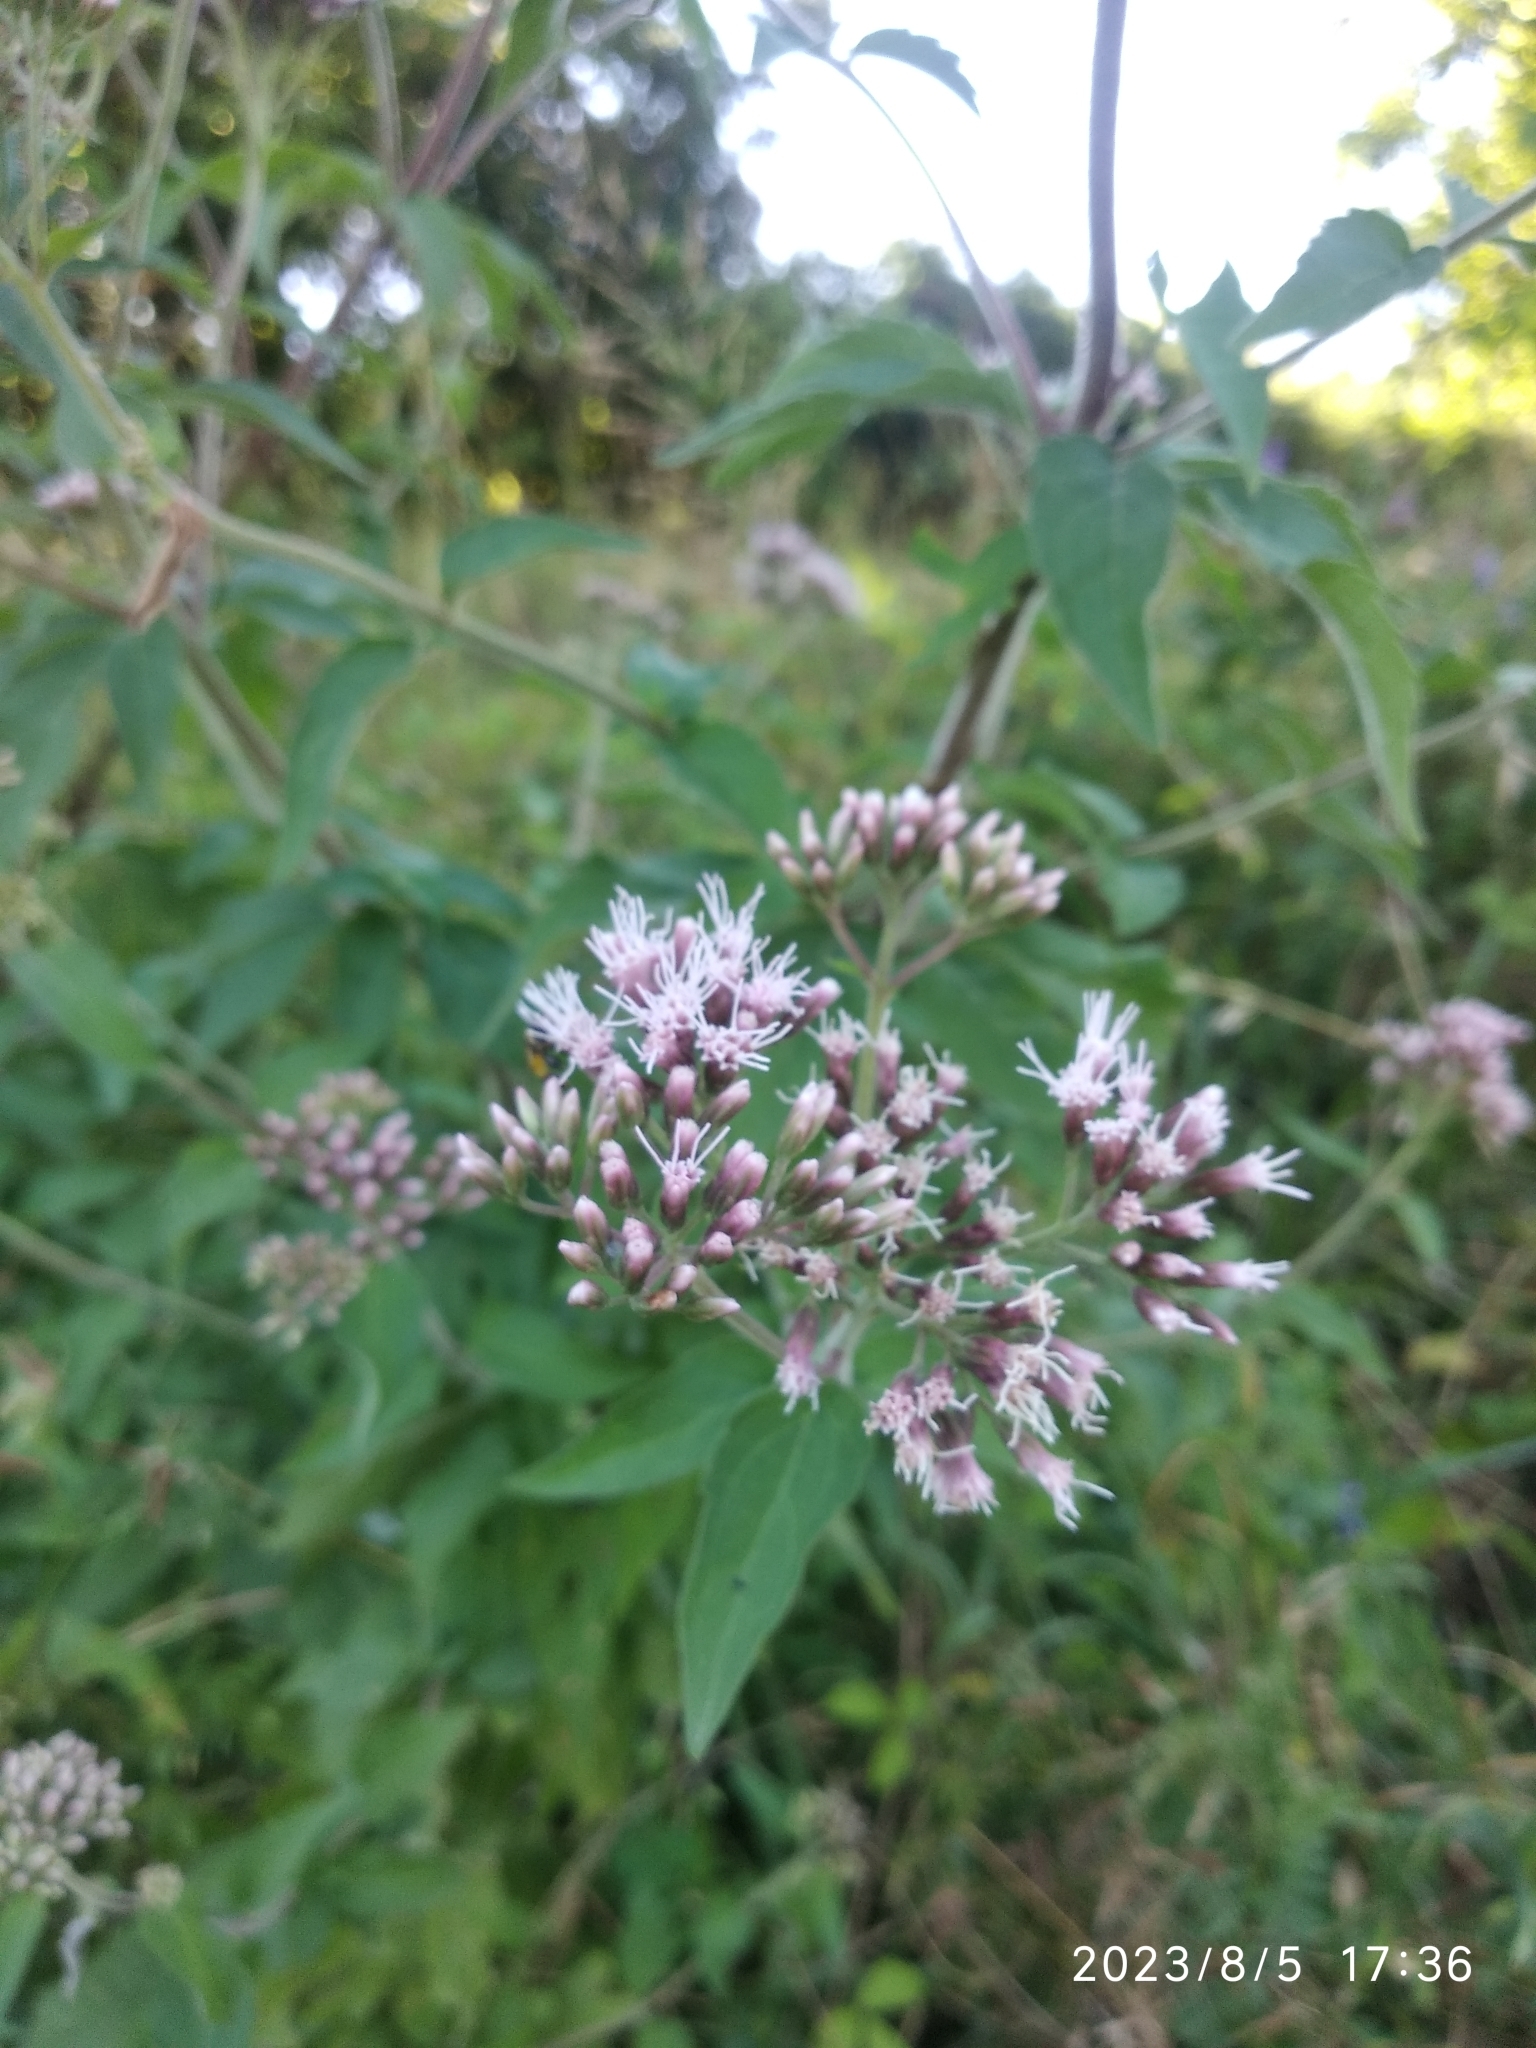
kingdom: Plantae
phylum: Tracheophyta
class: Magnoliopsida
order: Asterales
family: Asteraceae
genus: Eupatorium
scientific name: Eupatorium cannabinum
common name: Hemp-agrimony
